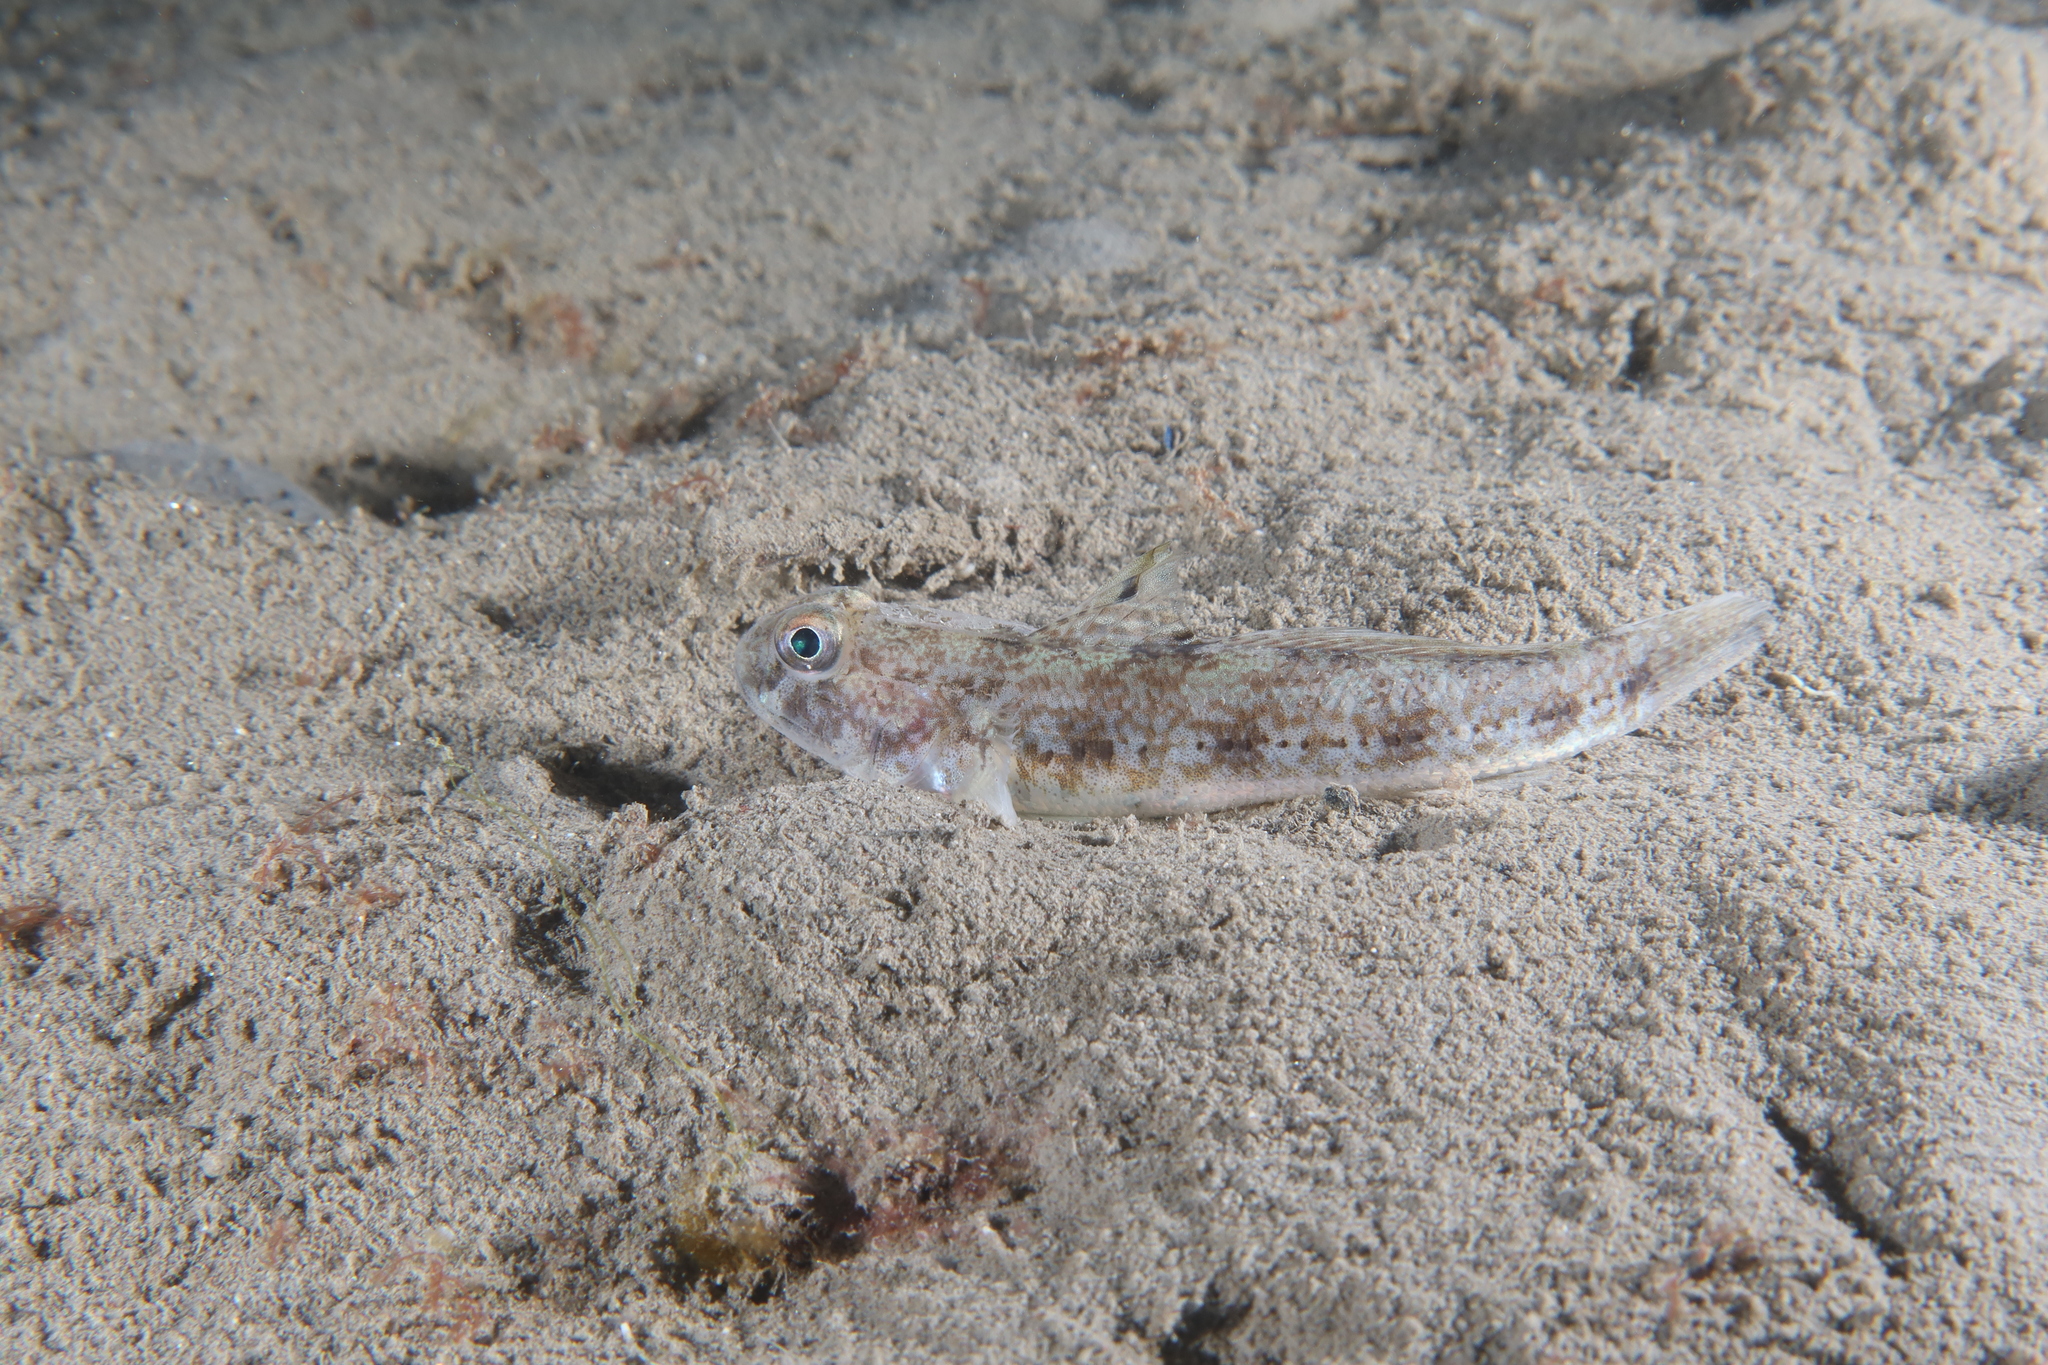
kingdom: Animalia
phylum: Chordata
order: Perciformes
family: Gobiidae
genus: Gobius
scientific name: Gobius niger
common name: Black goby
